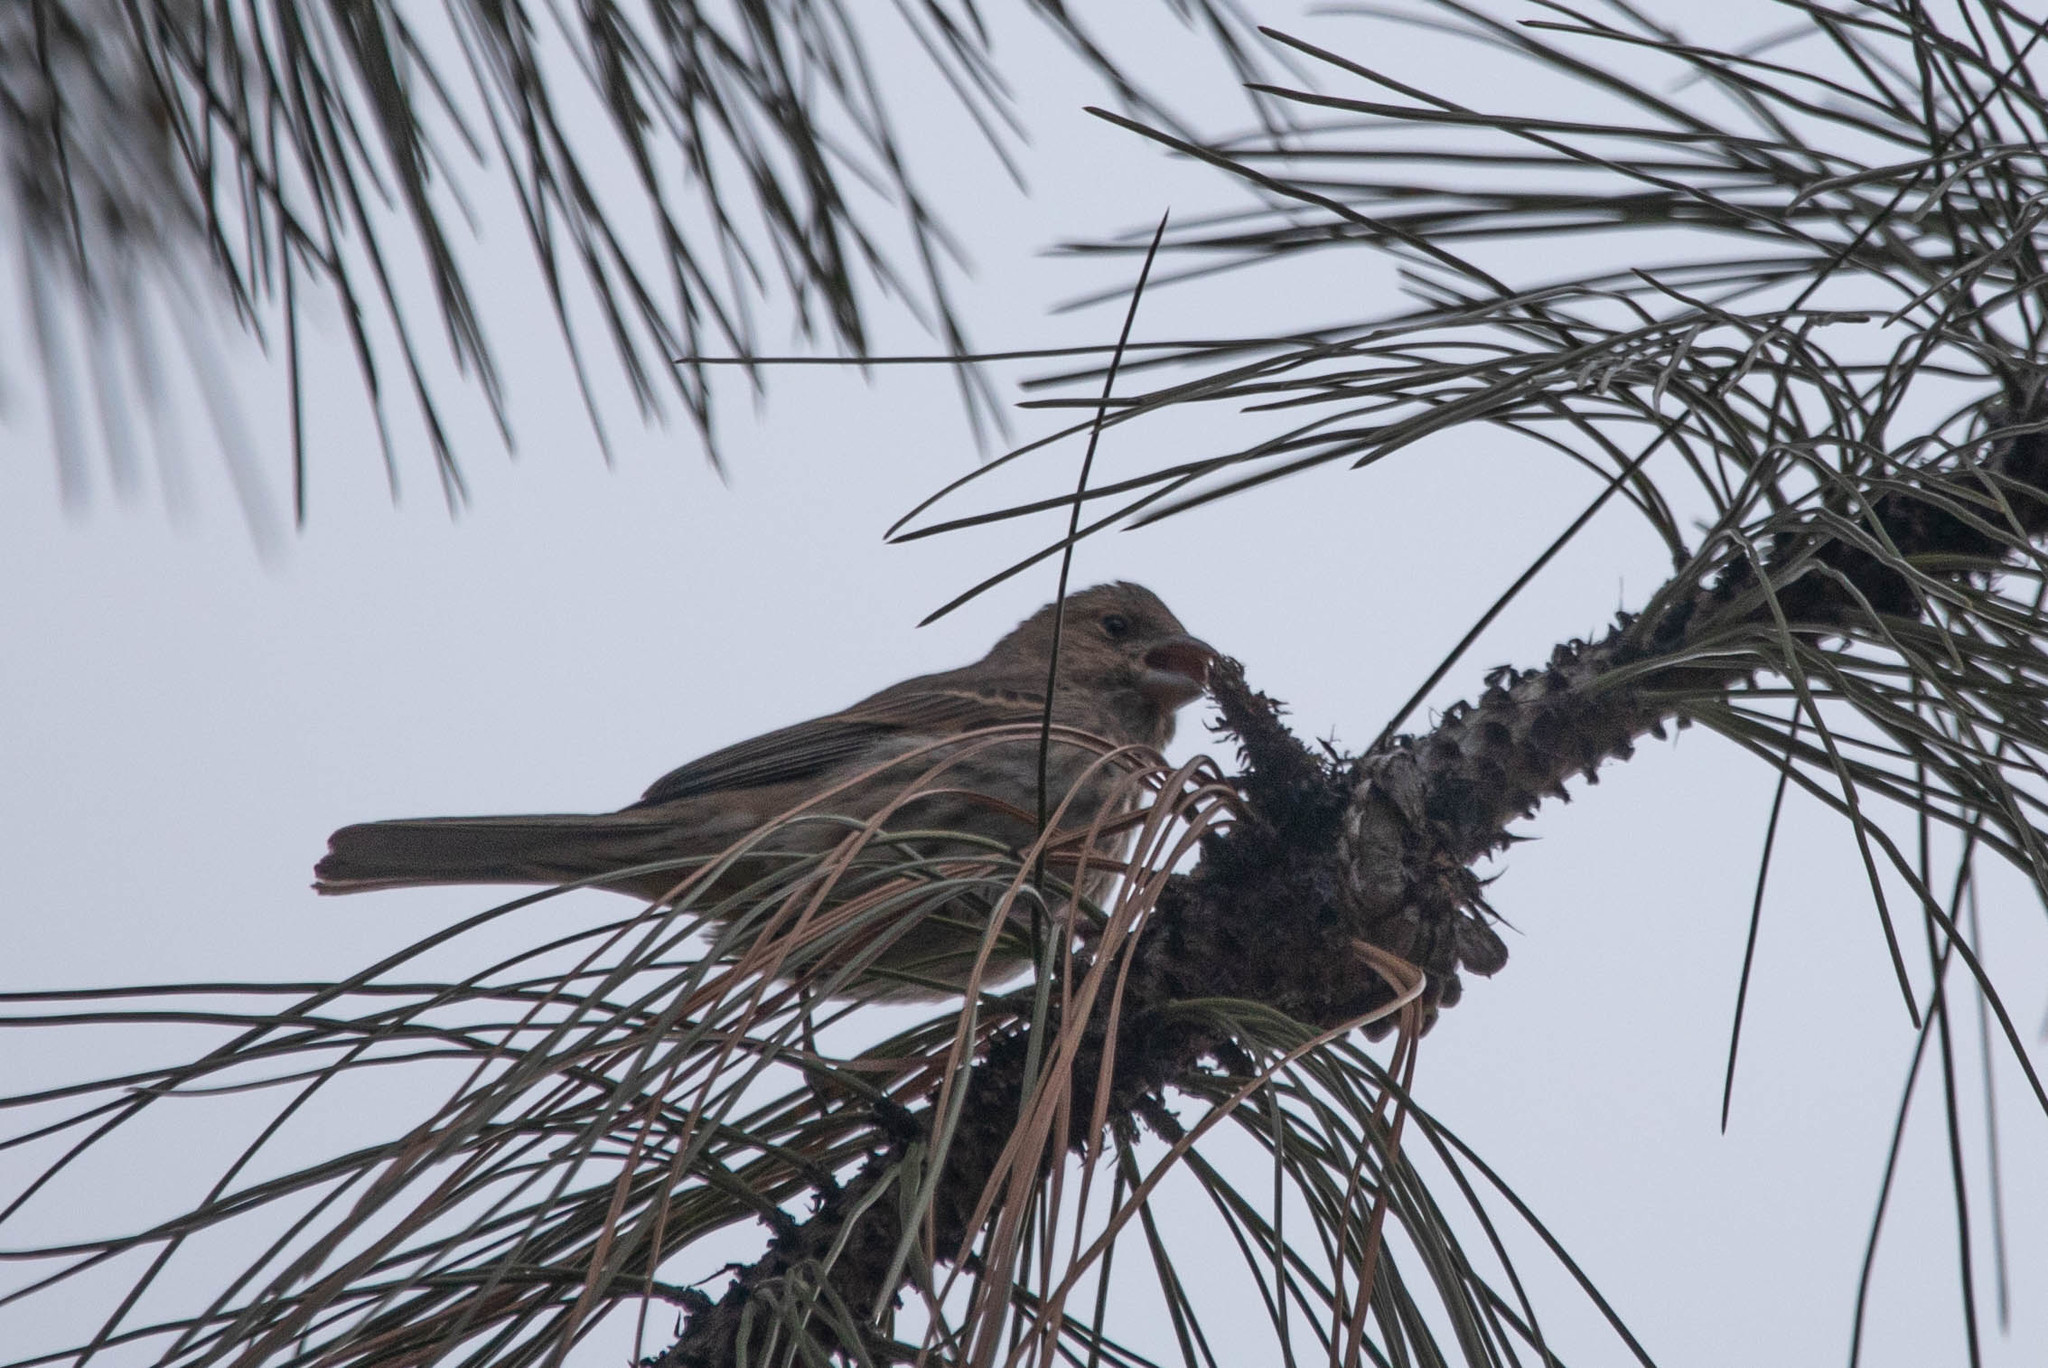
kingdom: Animalia
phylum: Chordata
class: Aves
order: Passeriformes
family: Fringillidae
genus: Haemorhous
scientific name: Haemorhous mexicanus
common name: House finch
